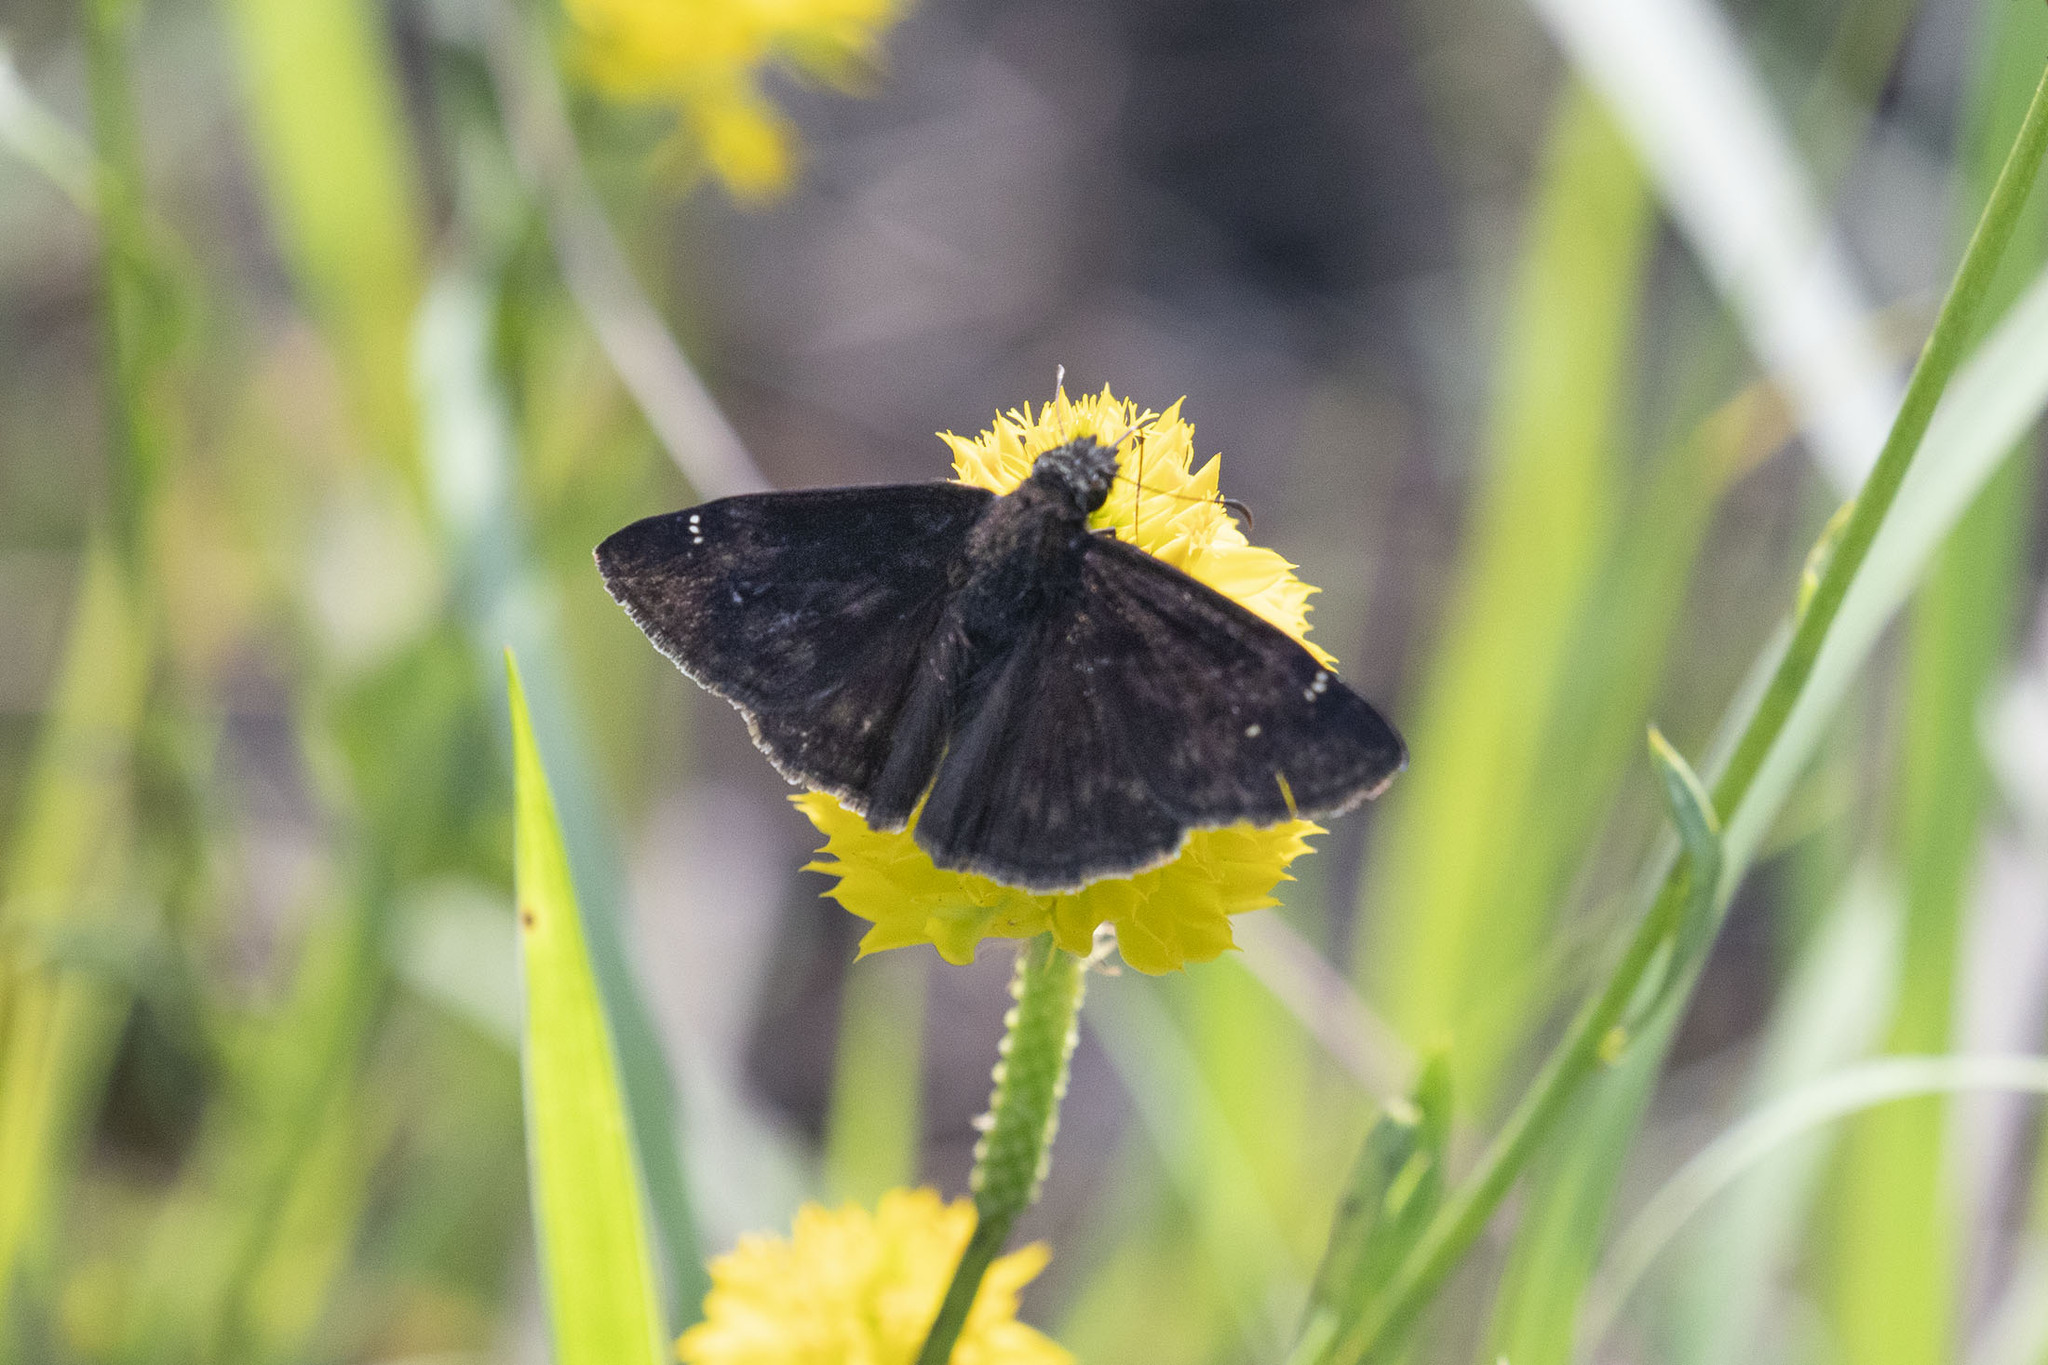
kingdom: Animalia
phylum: Arthropoda
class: Insecta
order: Lepidoptera
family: Hesperiidae
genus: Erynnis
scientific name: Erynnis zarucco
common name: Zarucco duskywing
